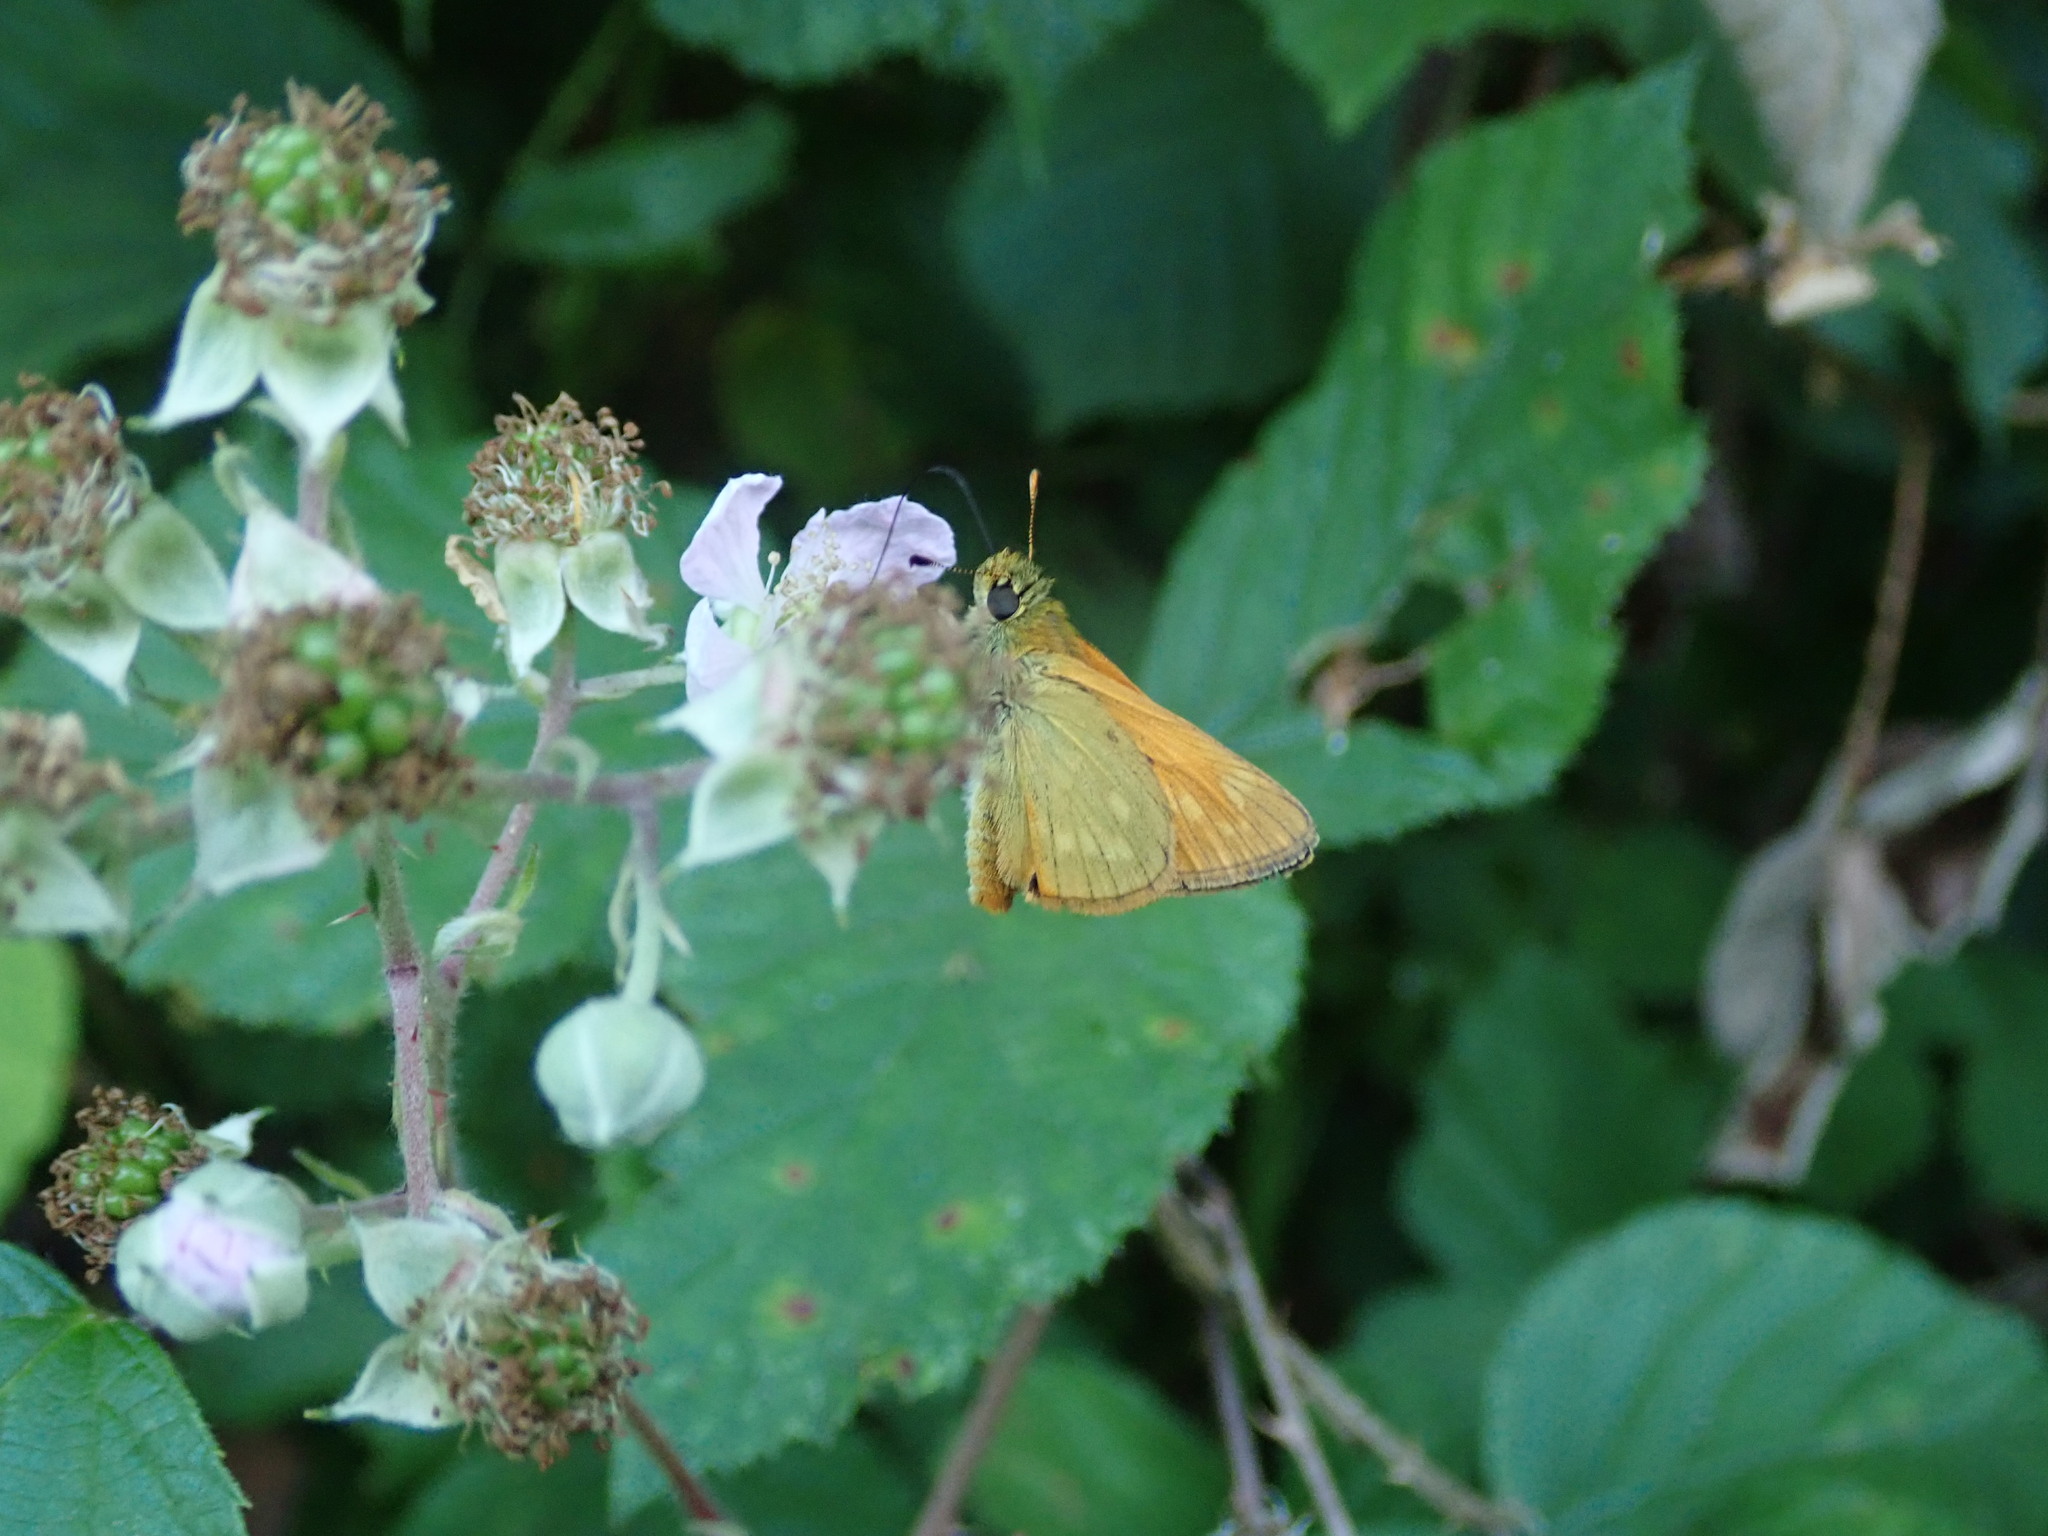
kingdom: Animalia
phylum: Arthropoda
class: Insecta
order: Lepidoptera
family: Hesperiidae
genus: Ochlodes
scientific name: Ochlodes venata
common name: Large skipper
